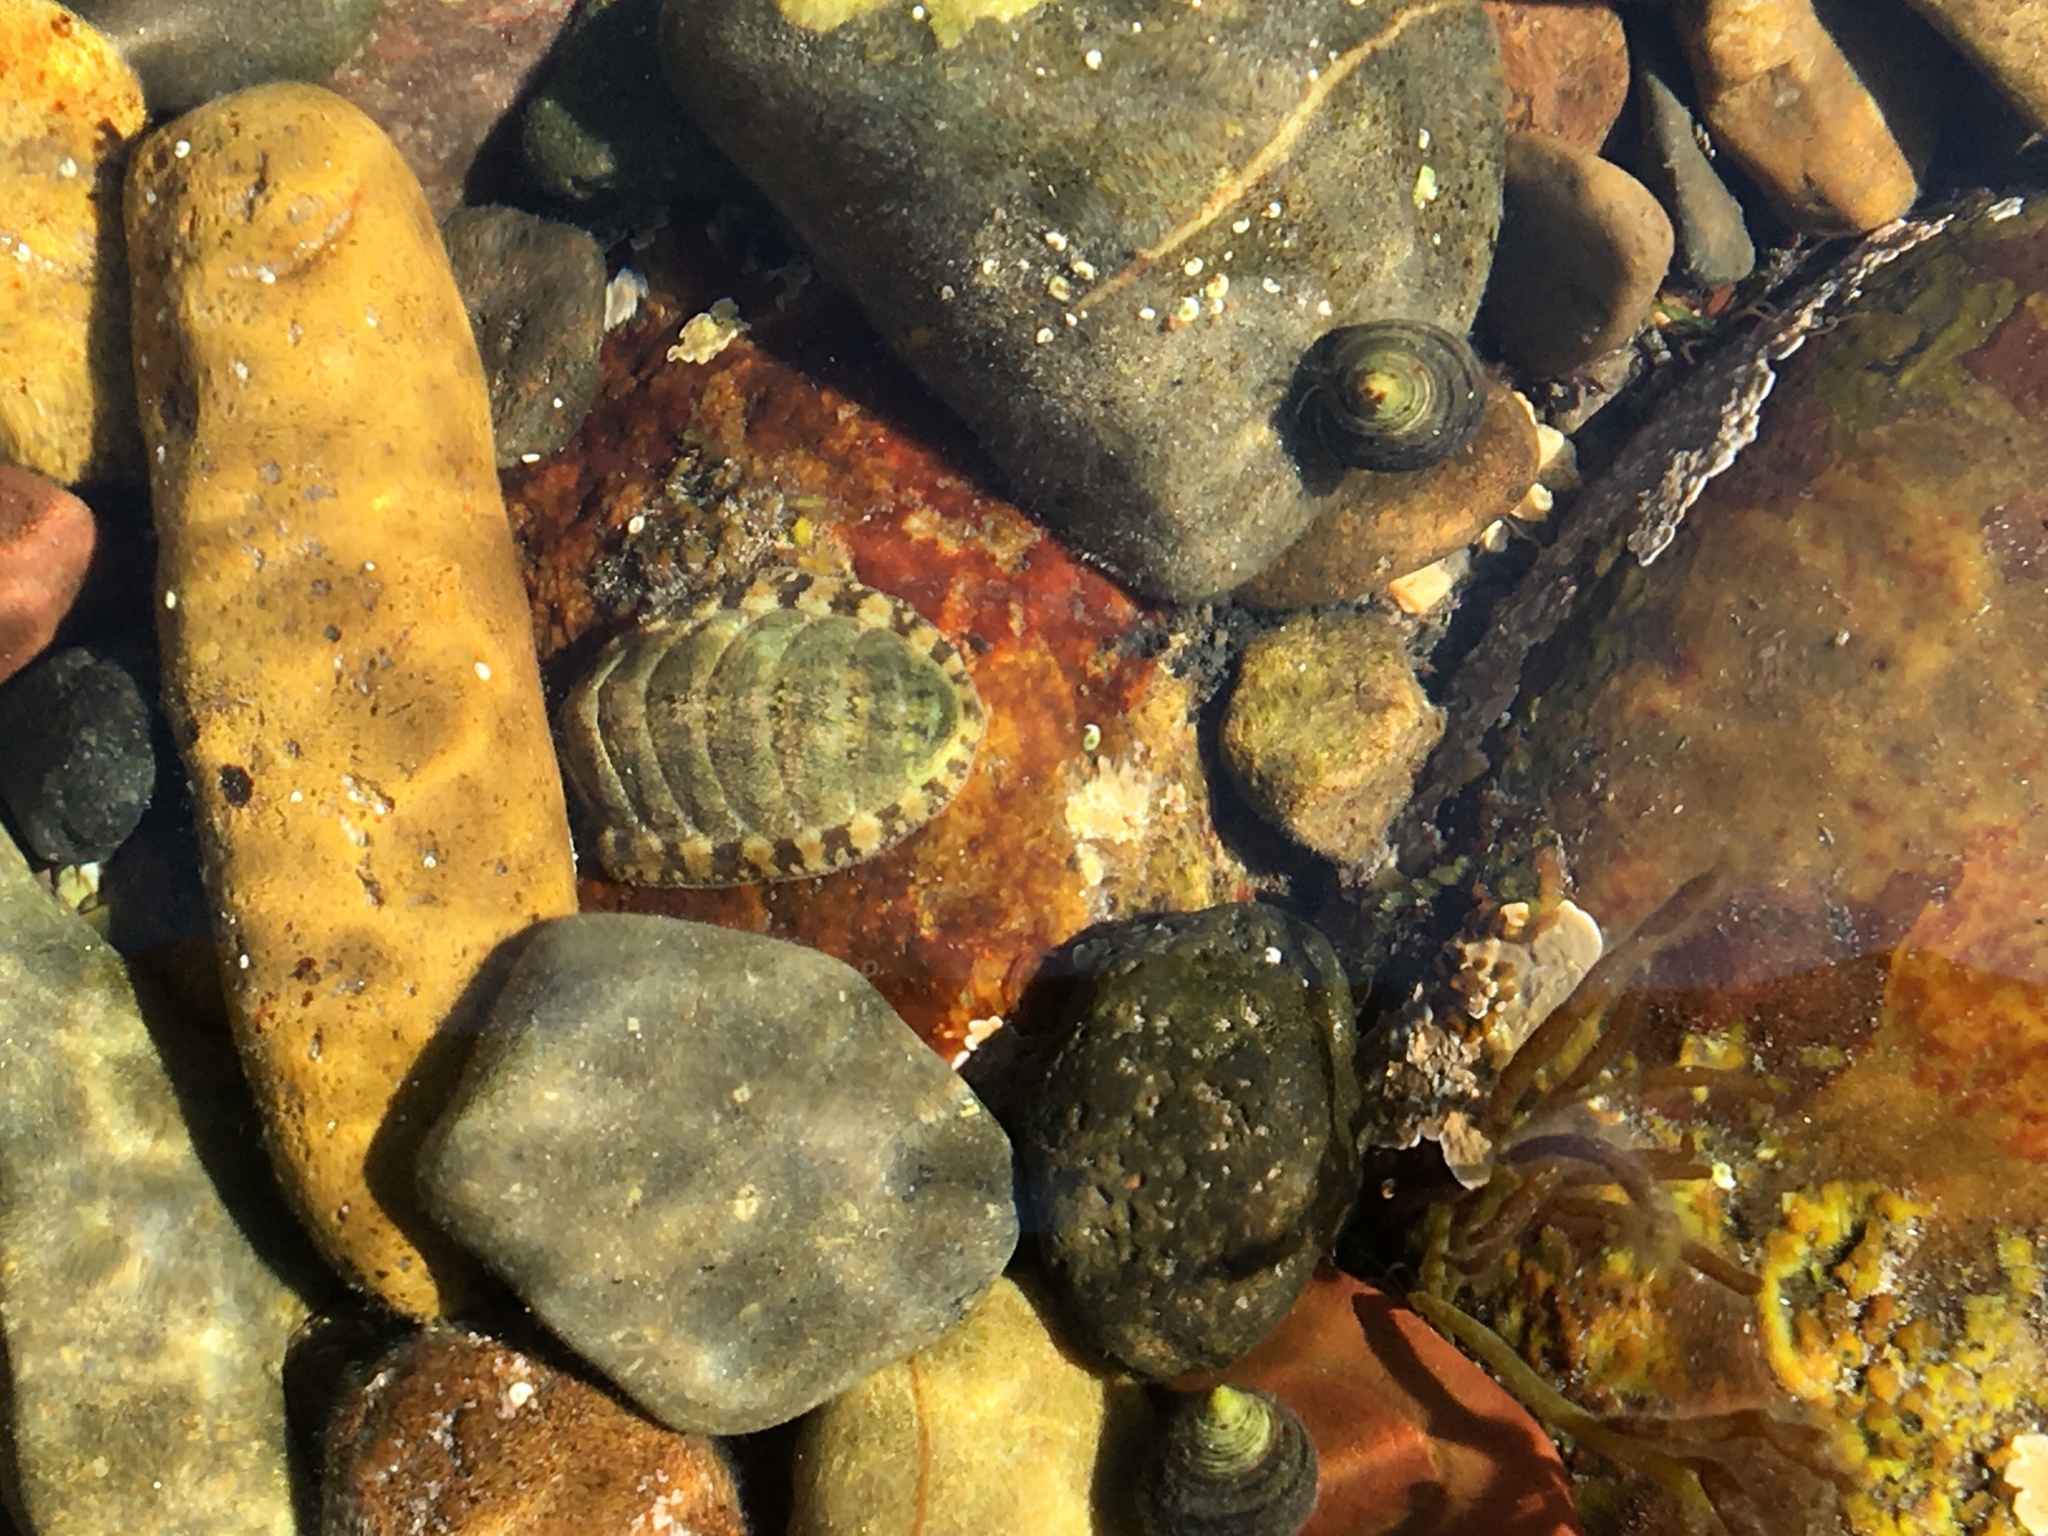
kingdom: Animalia
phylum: Mollusca
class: Polyplacophora
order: Chitonida
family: Tonicellidae
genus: Lepidochitona
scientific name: Lepidochitona cinerea
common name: Cinereous chiton
